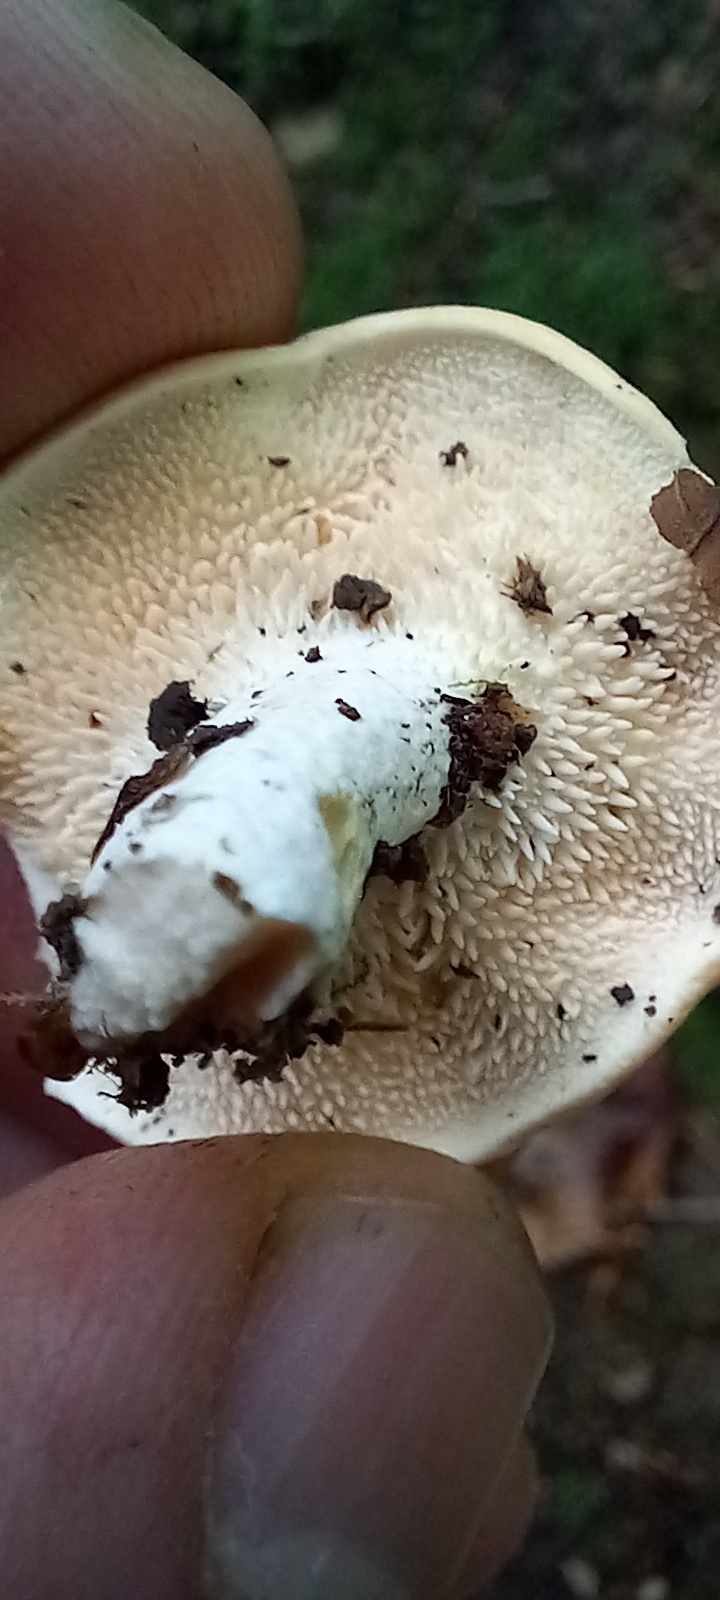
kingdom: Fungi
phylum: Basidiomycota
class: Agaricomycetes
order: Cantharellales
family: Hydnaceae
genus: Hydnum
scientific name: Hydnum repandum
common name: Wood hedgehog
